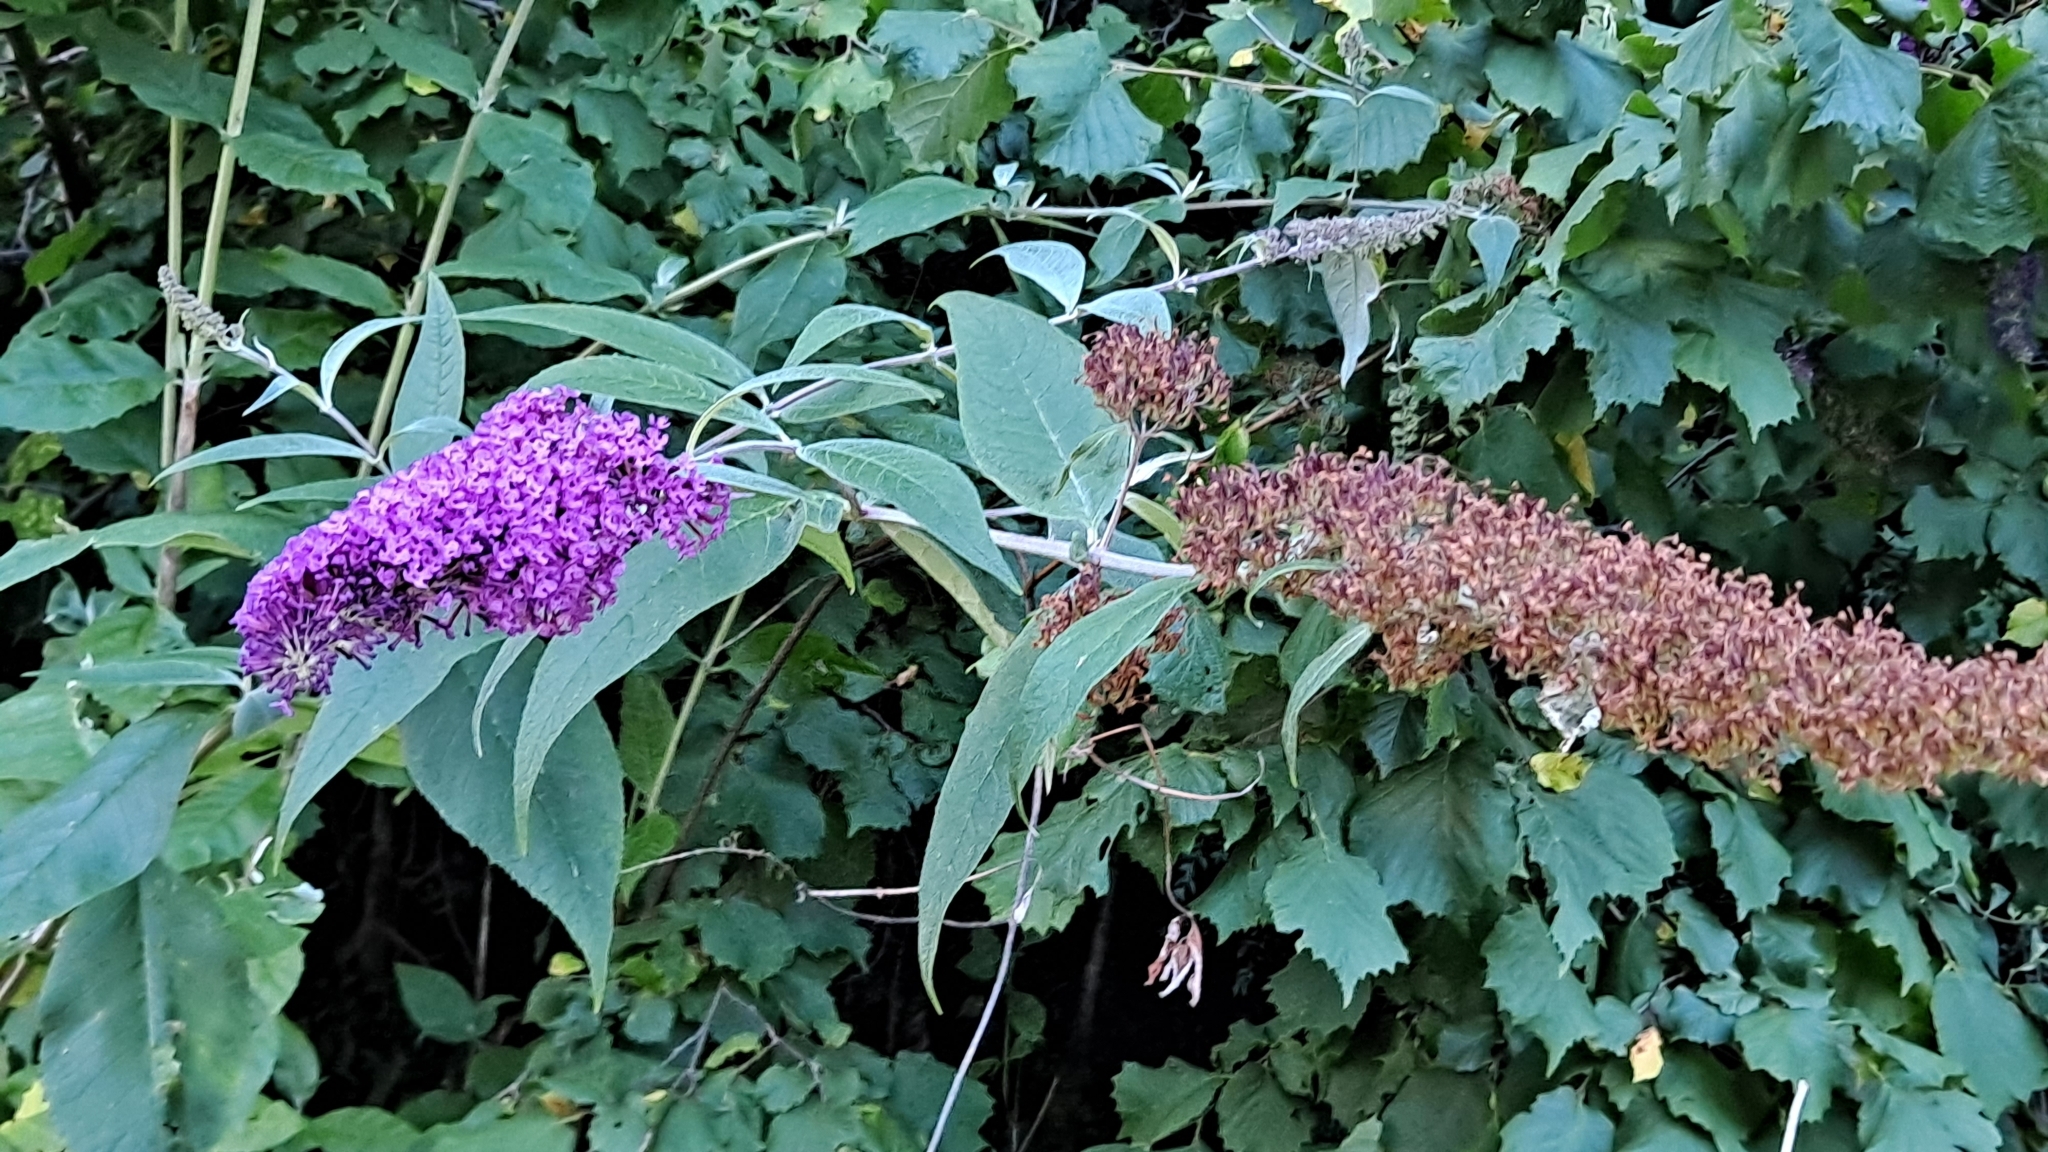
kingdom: Plantae
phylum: Tracheophyta
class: Magnoliopsida
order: Lamiales
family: Scrophulariaceae
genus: Buddleja
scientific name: Buddleja davidii
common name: Butterfly-bush
